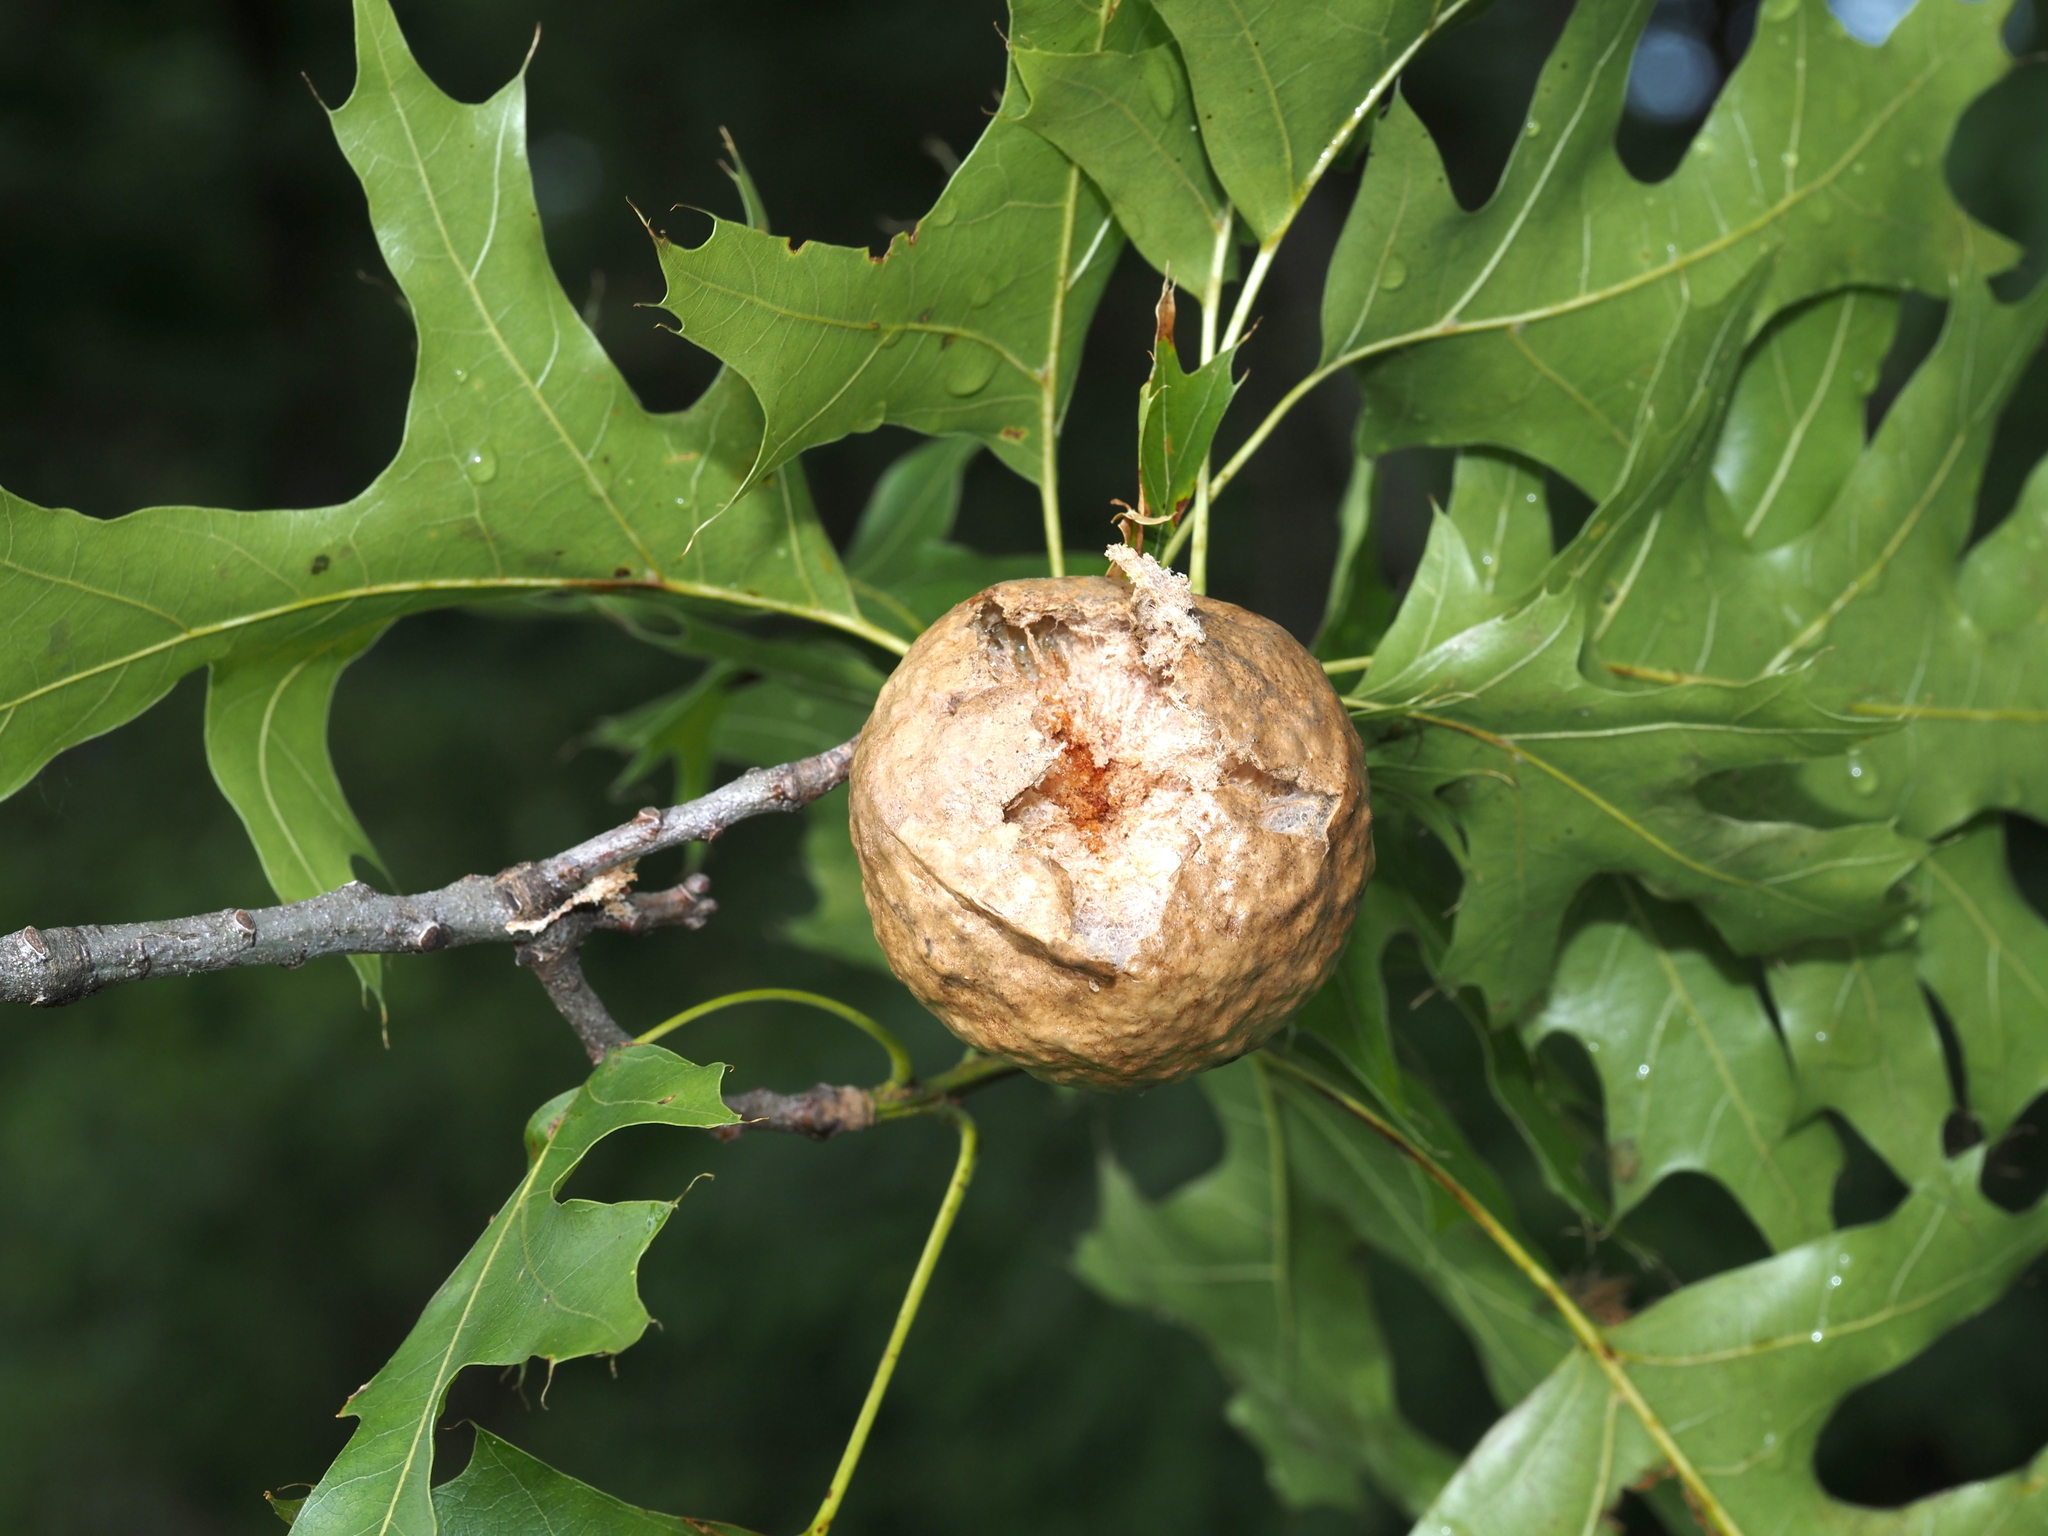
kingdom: Animalia
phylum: Arthropoda
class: Insecta
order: Hymenoptera
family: Cynipidae
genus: Amphibolips
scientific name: Amphibolips
